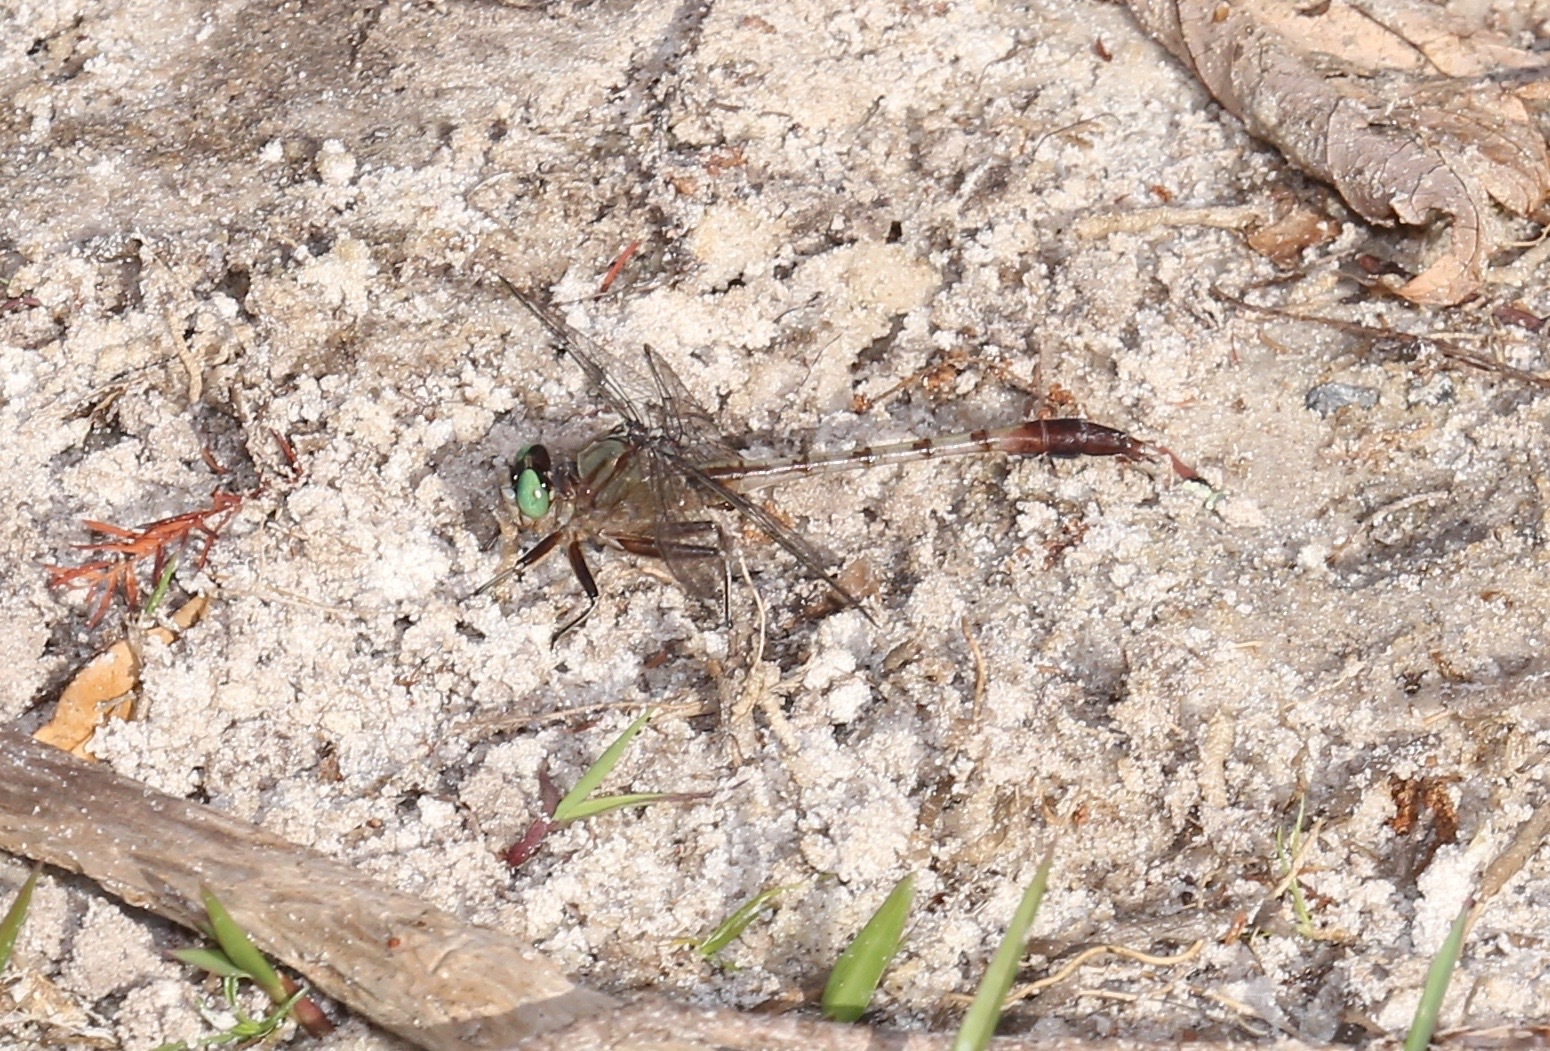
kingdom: Animalia
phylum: Arthropoda
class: Insecta
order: Odonata
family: Gomphidae
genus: Arigomphus
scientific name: Arigomphus pallidus
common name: Gray-green clubtail
